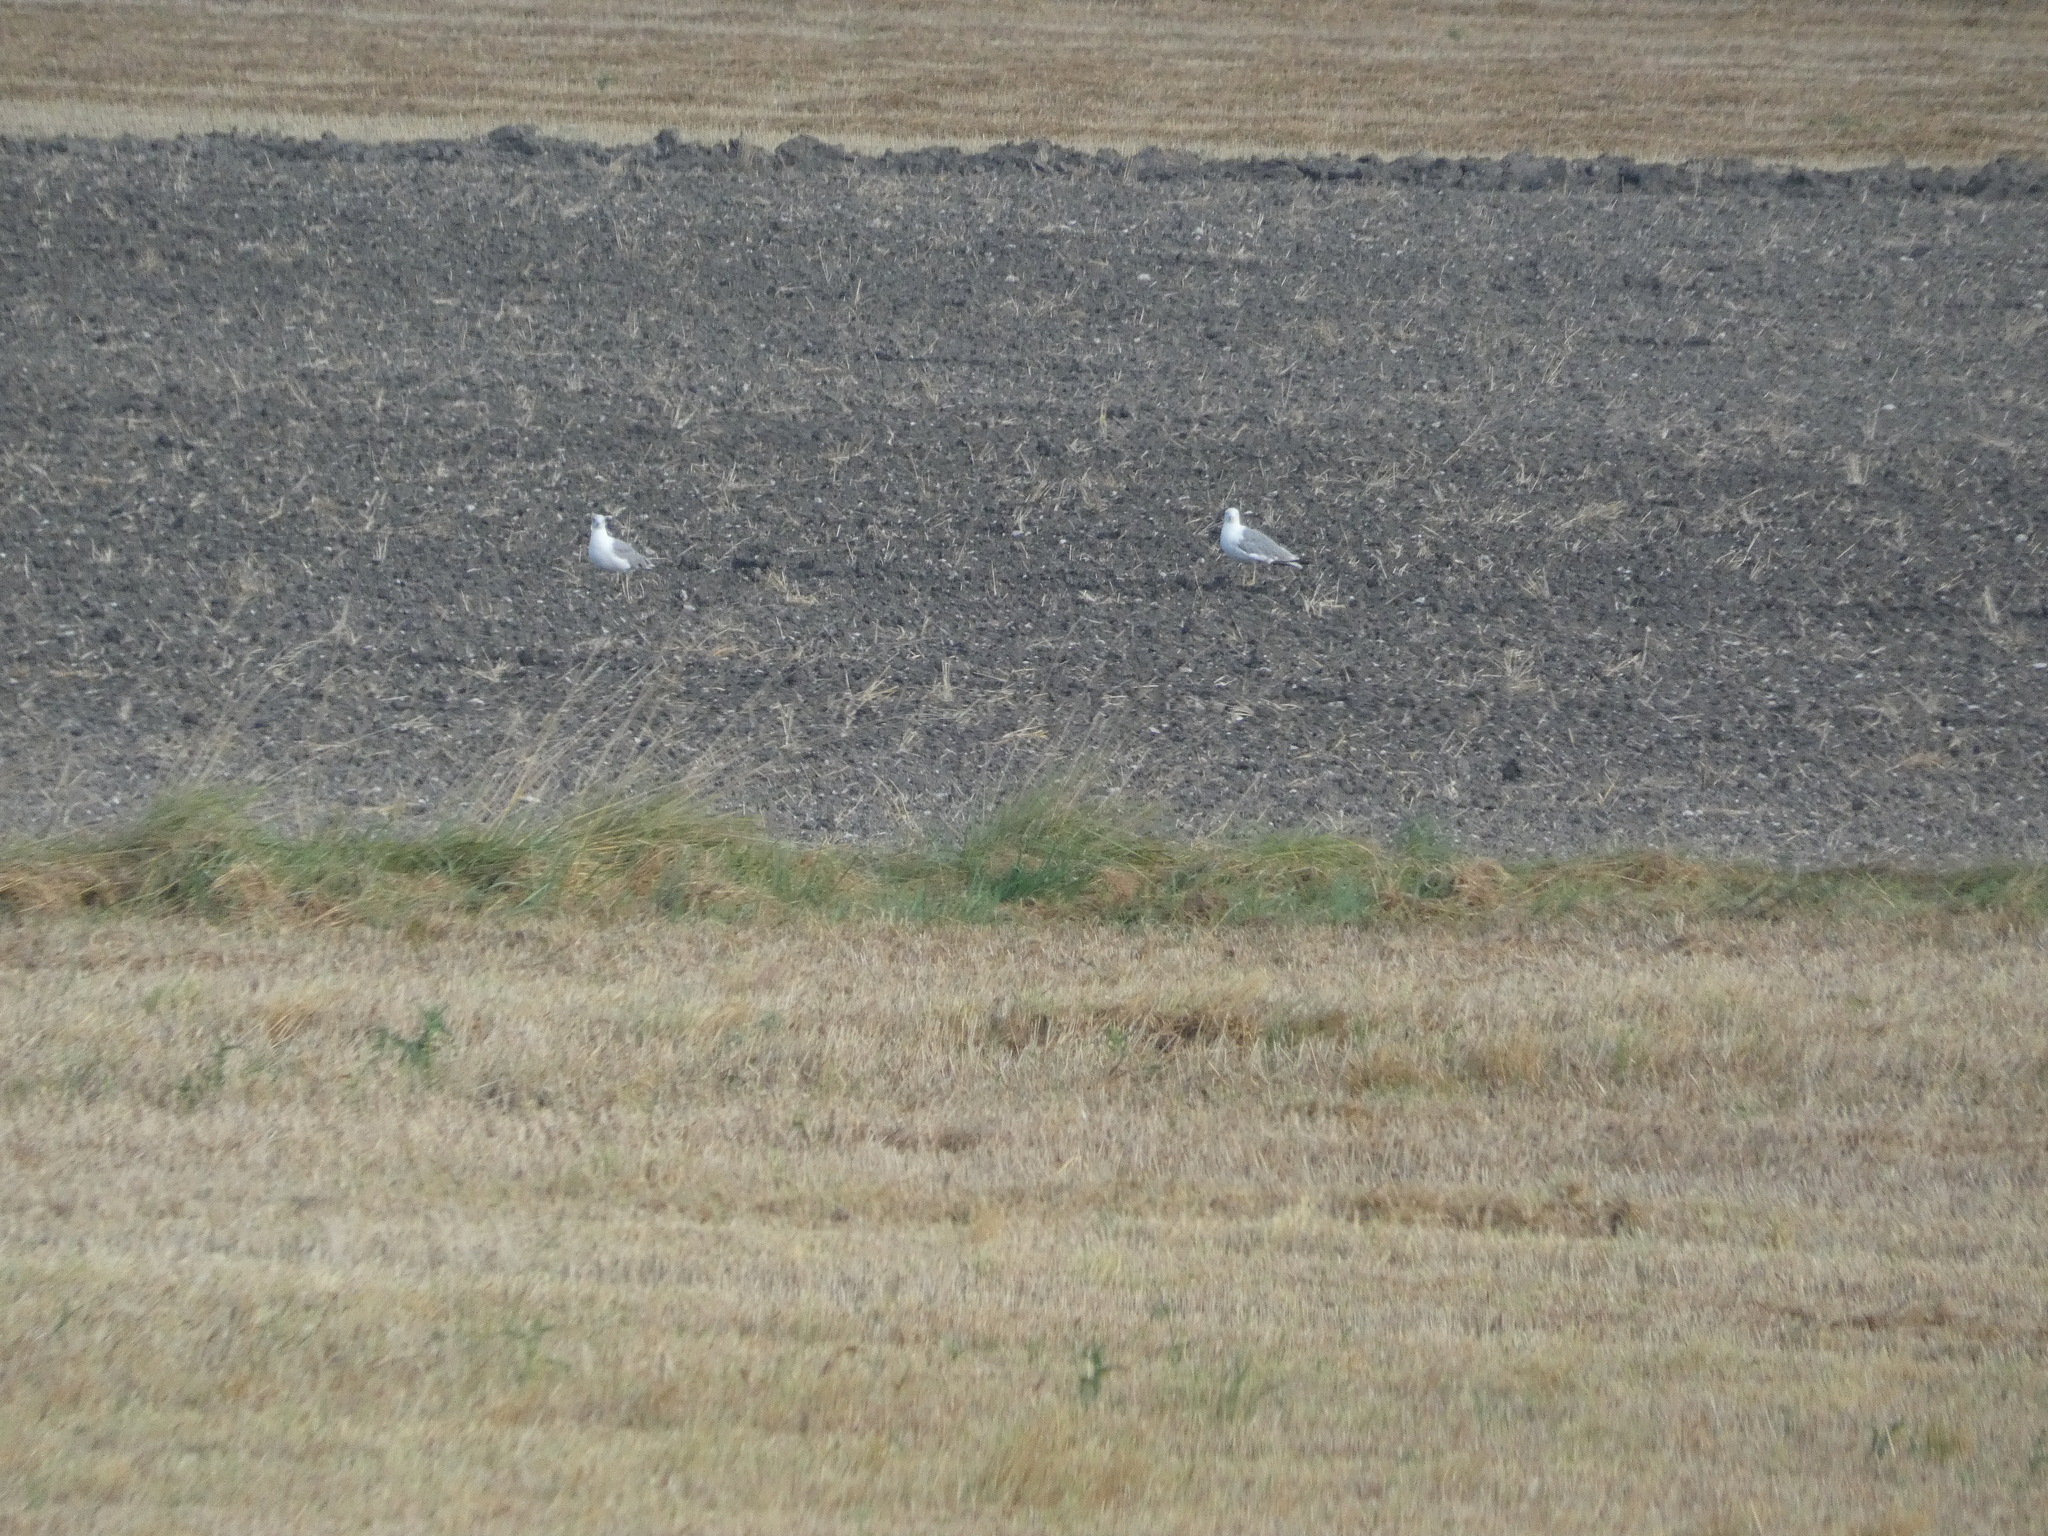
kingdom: Animalia
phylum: Chordata
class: Aves
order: Charadriiformes
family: Laridae
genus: Larus
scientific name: Larus michahellis
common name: Yellow-legged gull
